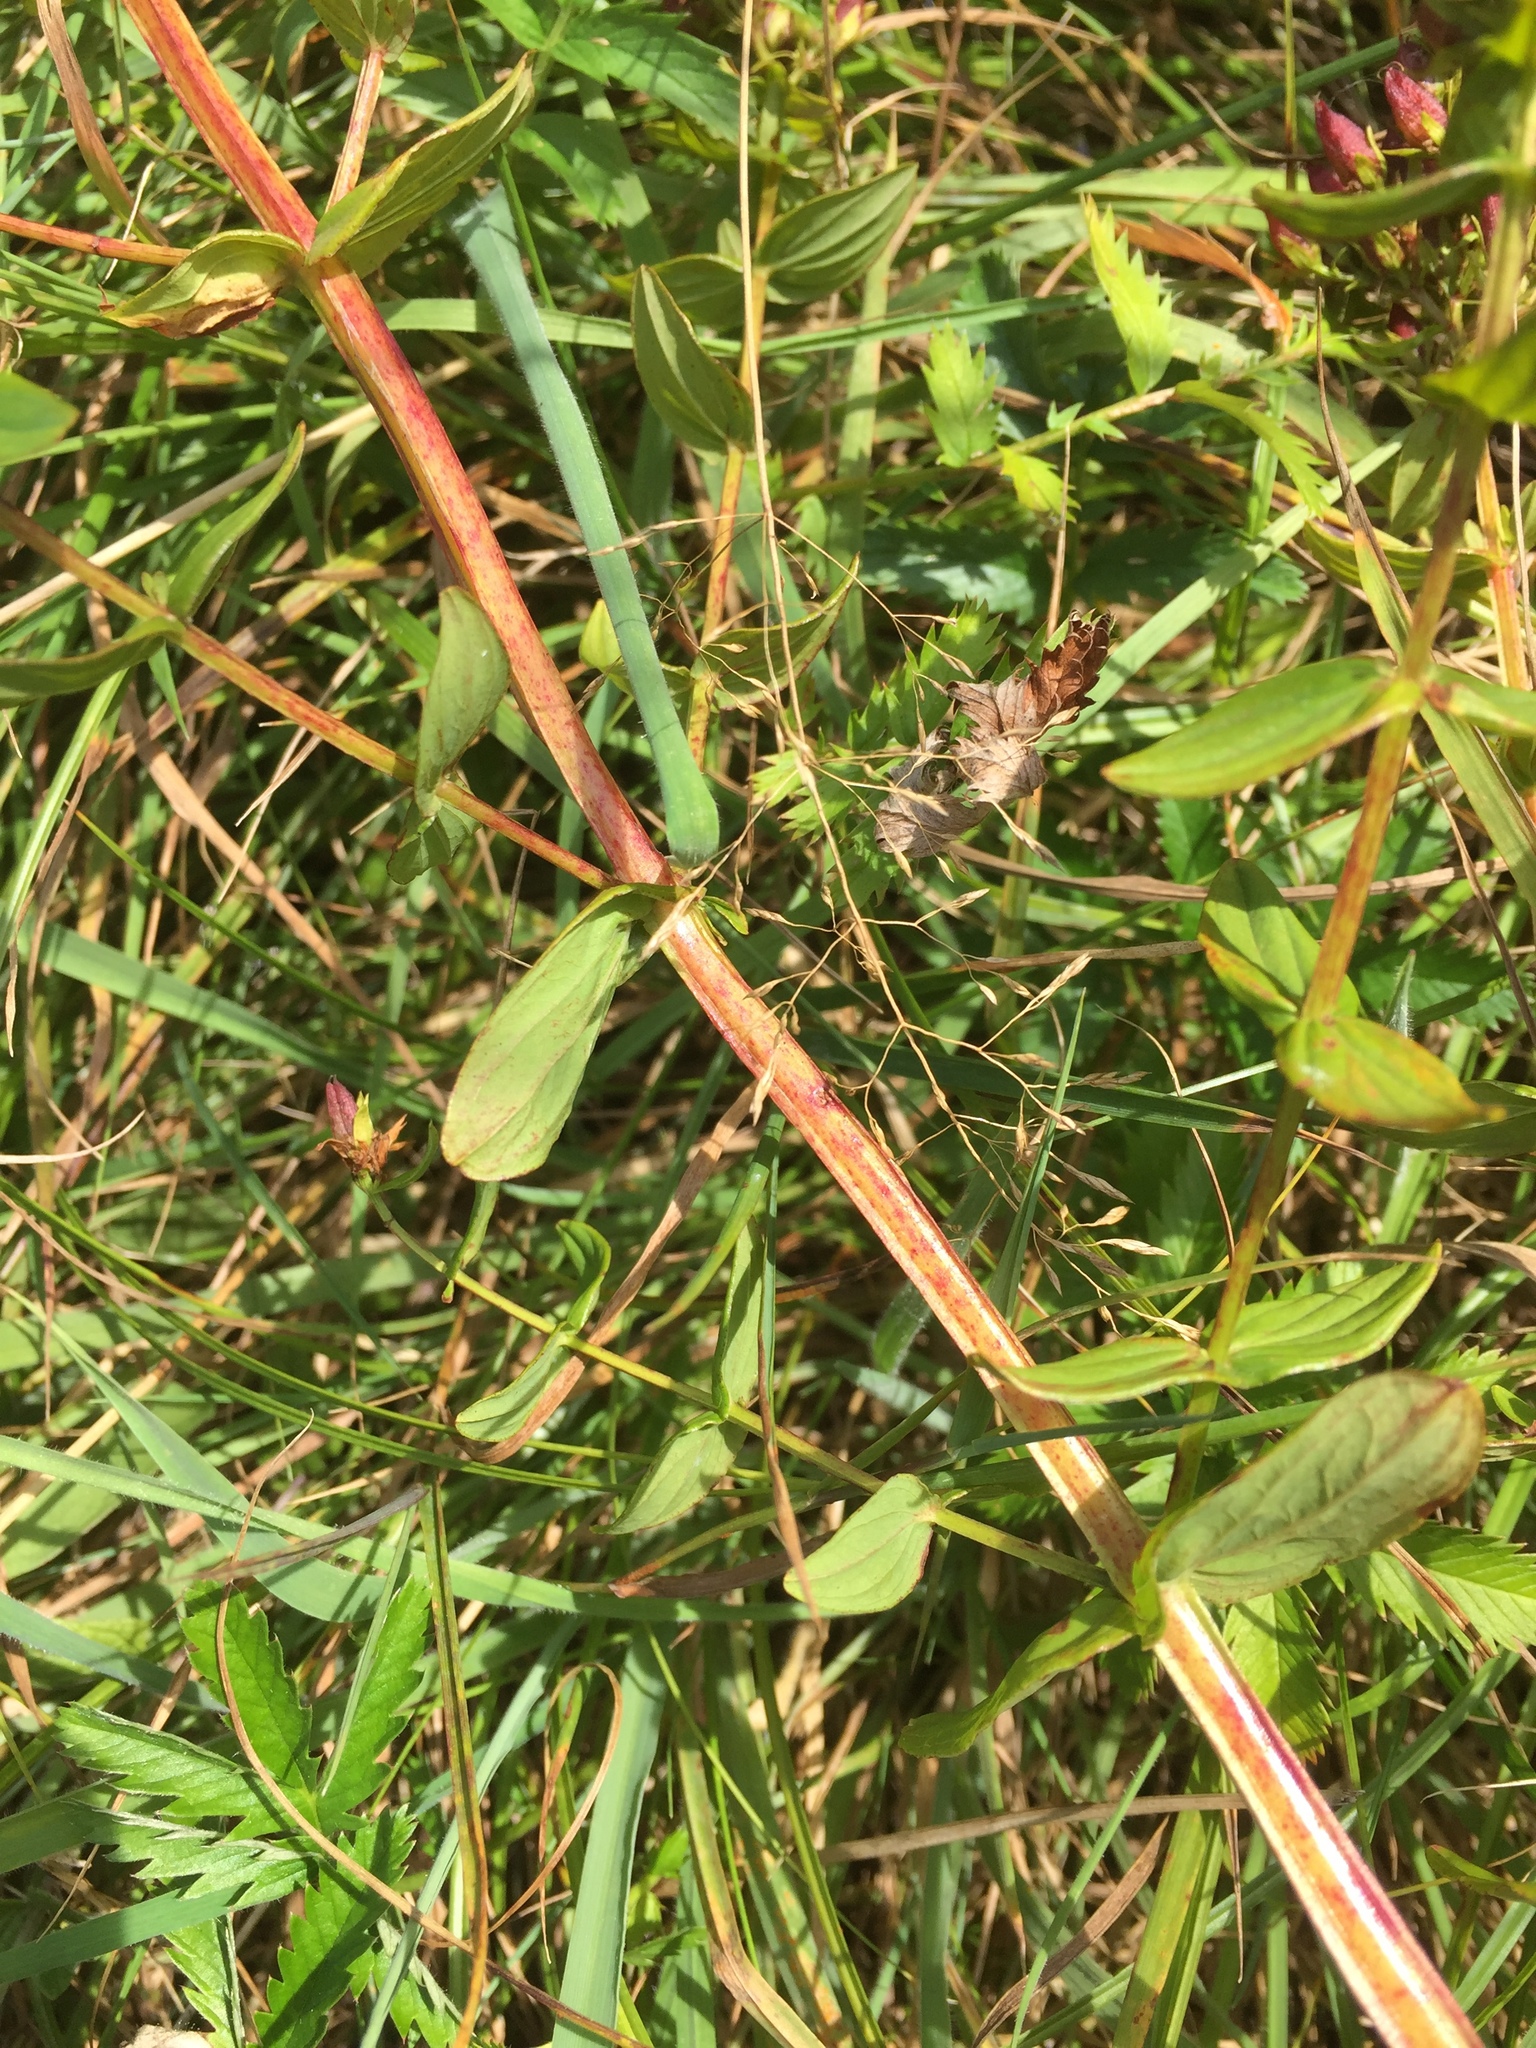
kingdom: Plantae
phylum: Tracheophyta
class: Magnoliopsida
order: Malpighiales
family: Hypericaceae
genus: Hypericum
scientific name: Hypericum tetrapterum
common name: Square-stalked st. john's-wort
